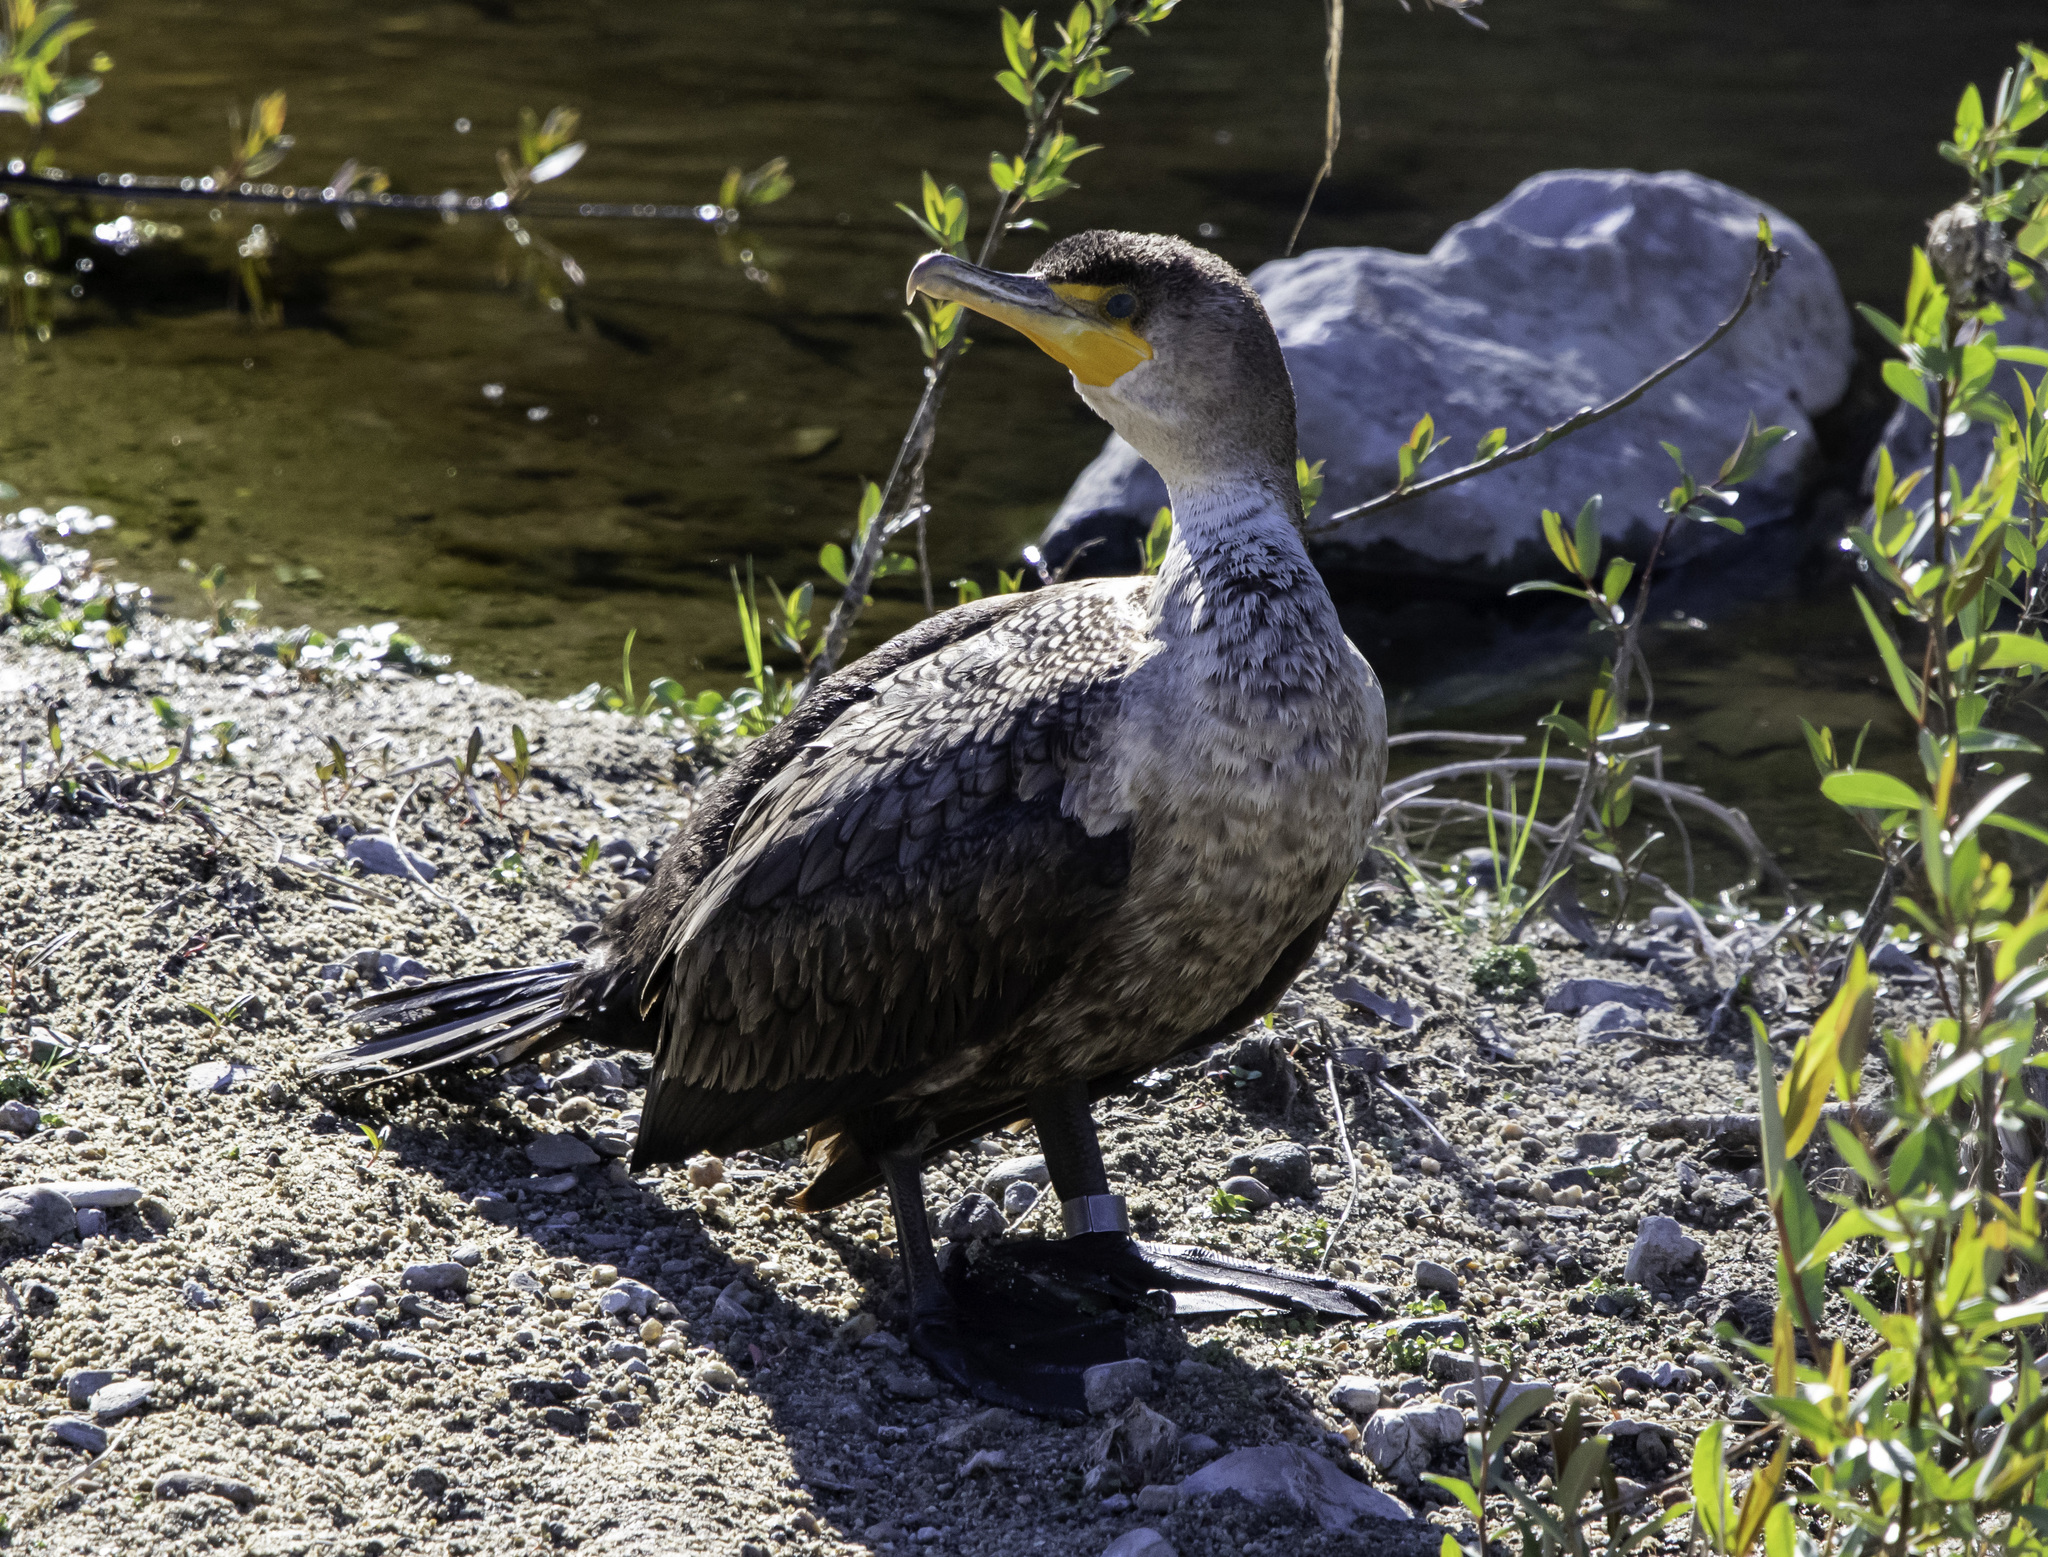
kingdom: Animalia
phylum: Chordata
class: Aves
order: Suliformes
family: Phalacrocoracidae
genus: Phalacrocorax
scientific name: Phalacrocorax auritus
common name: Double-crested cormorant
